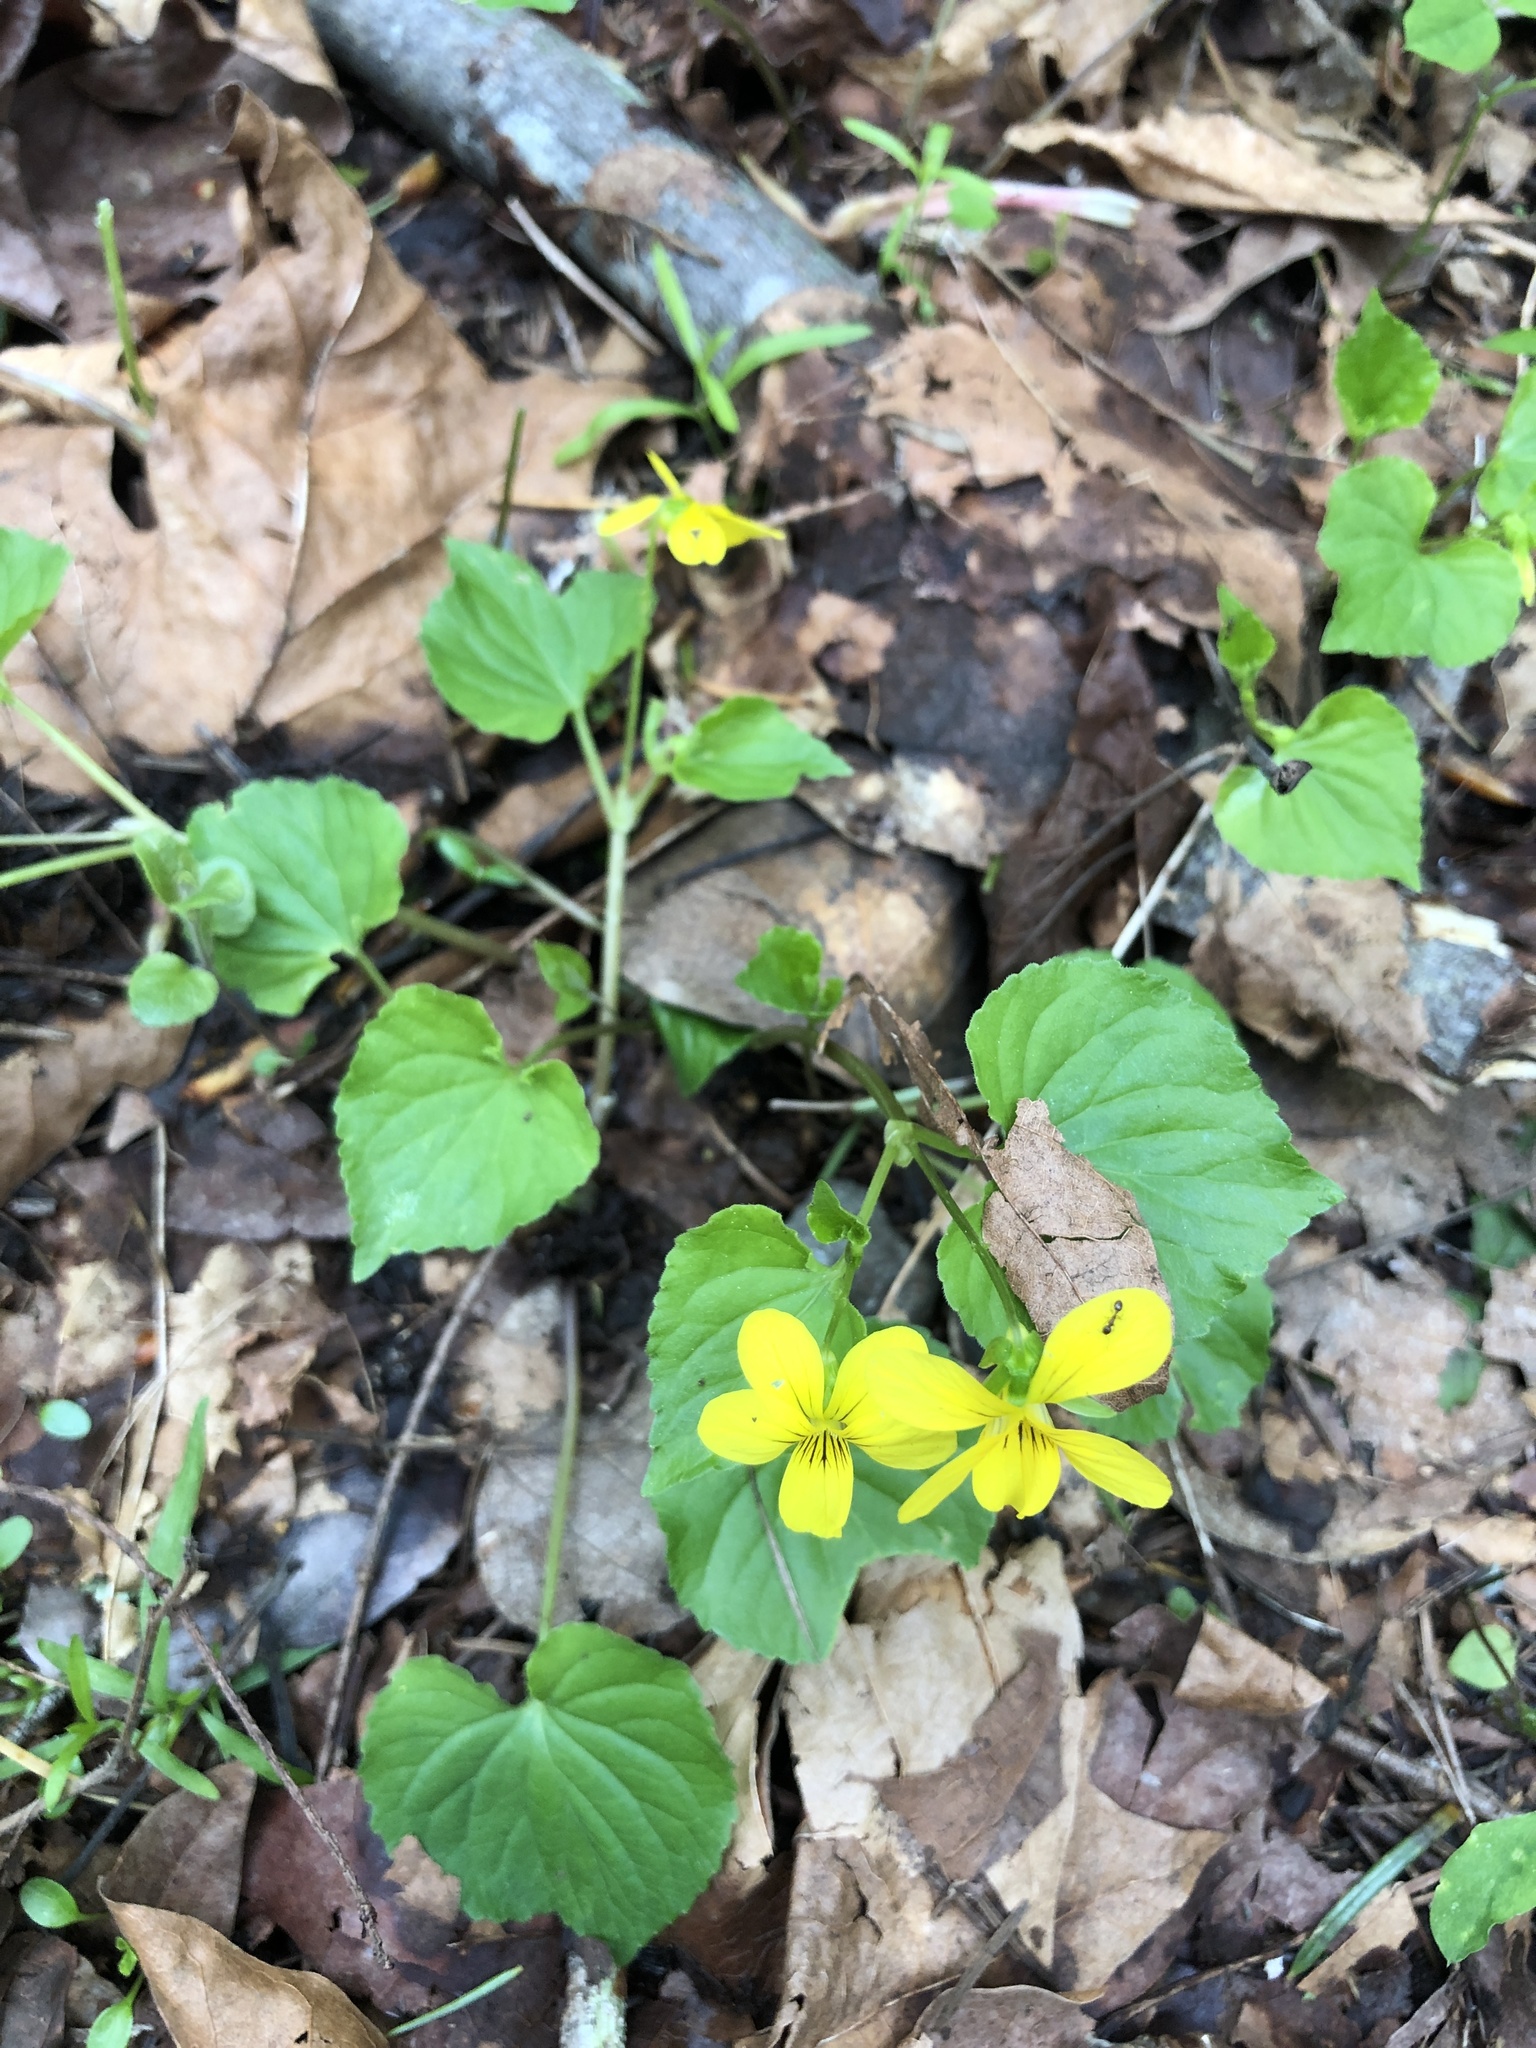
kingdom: Plantae
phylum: Tracheophyta
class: Magnoliopsida
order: Malpighiales
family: Violaceae
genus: Viola
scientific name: Viola glabella
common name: Stream violet
